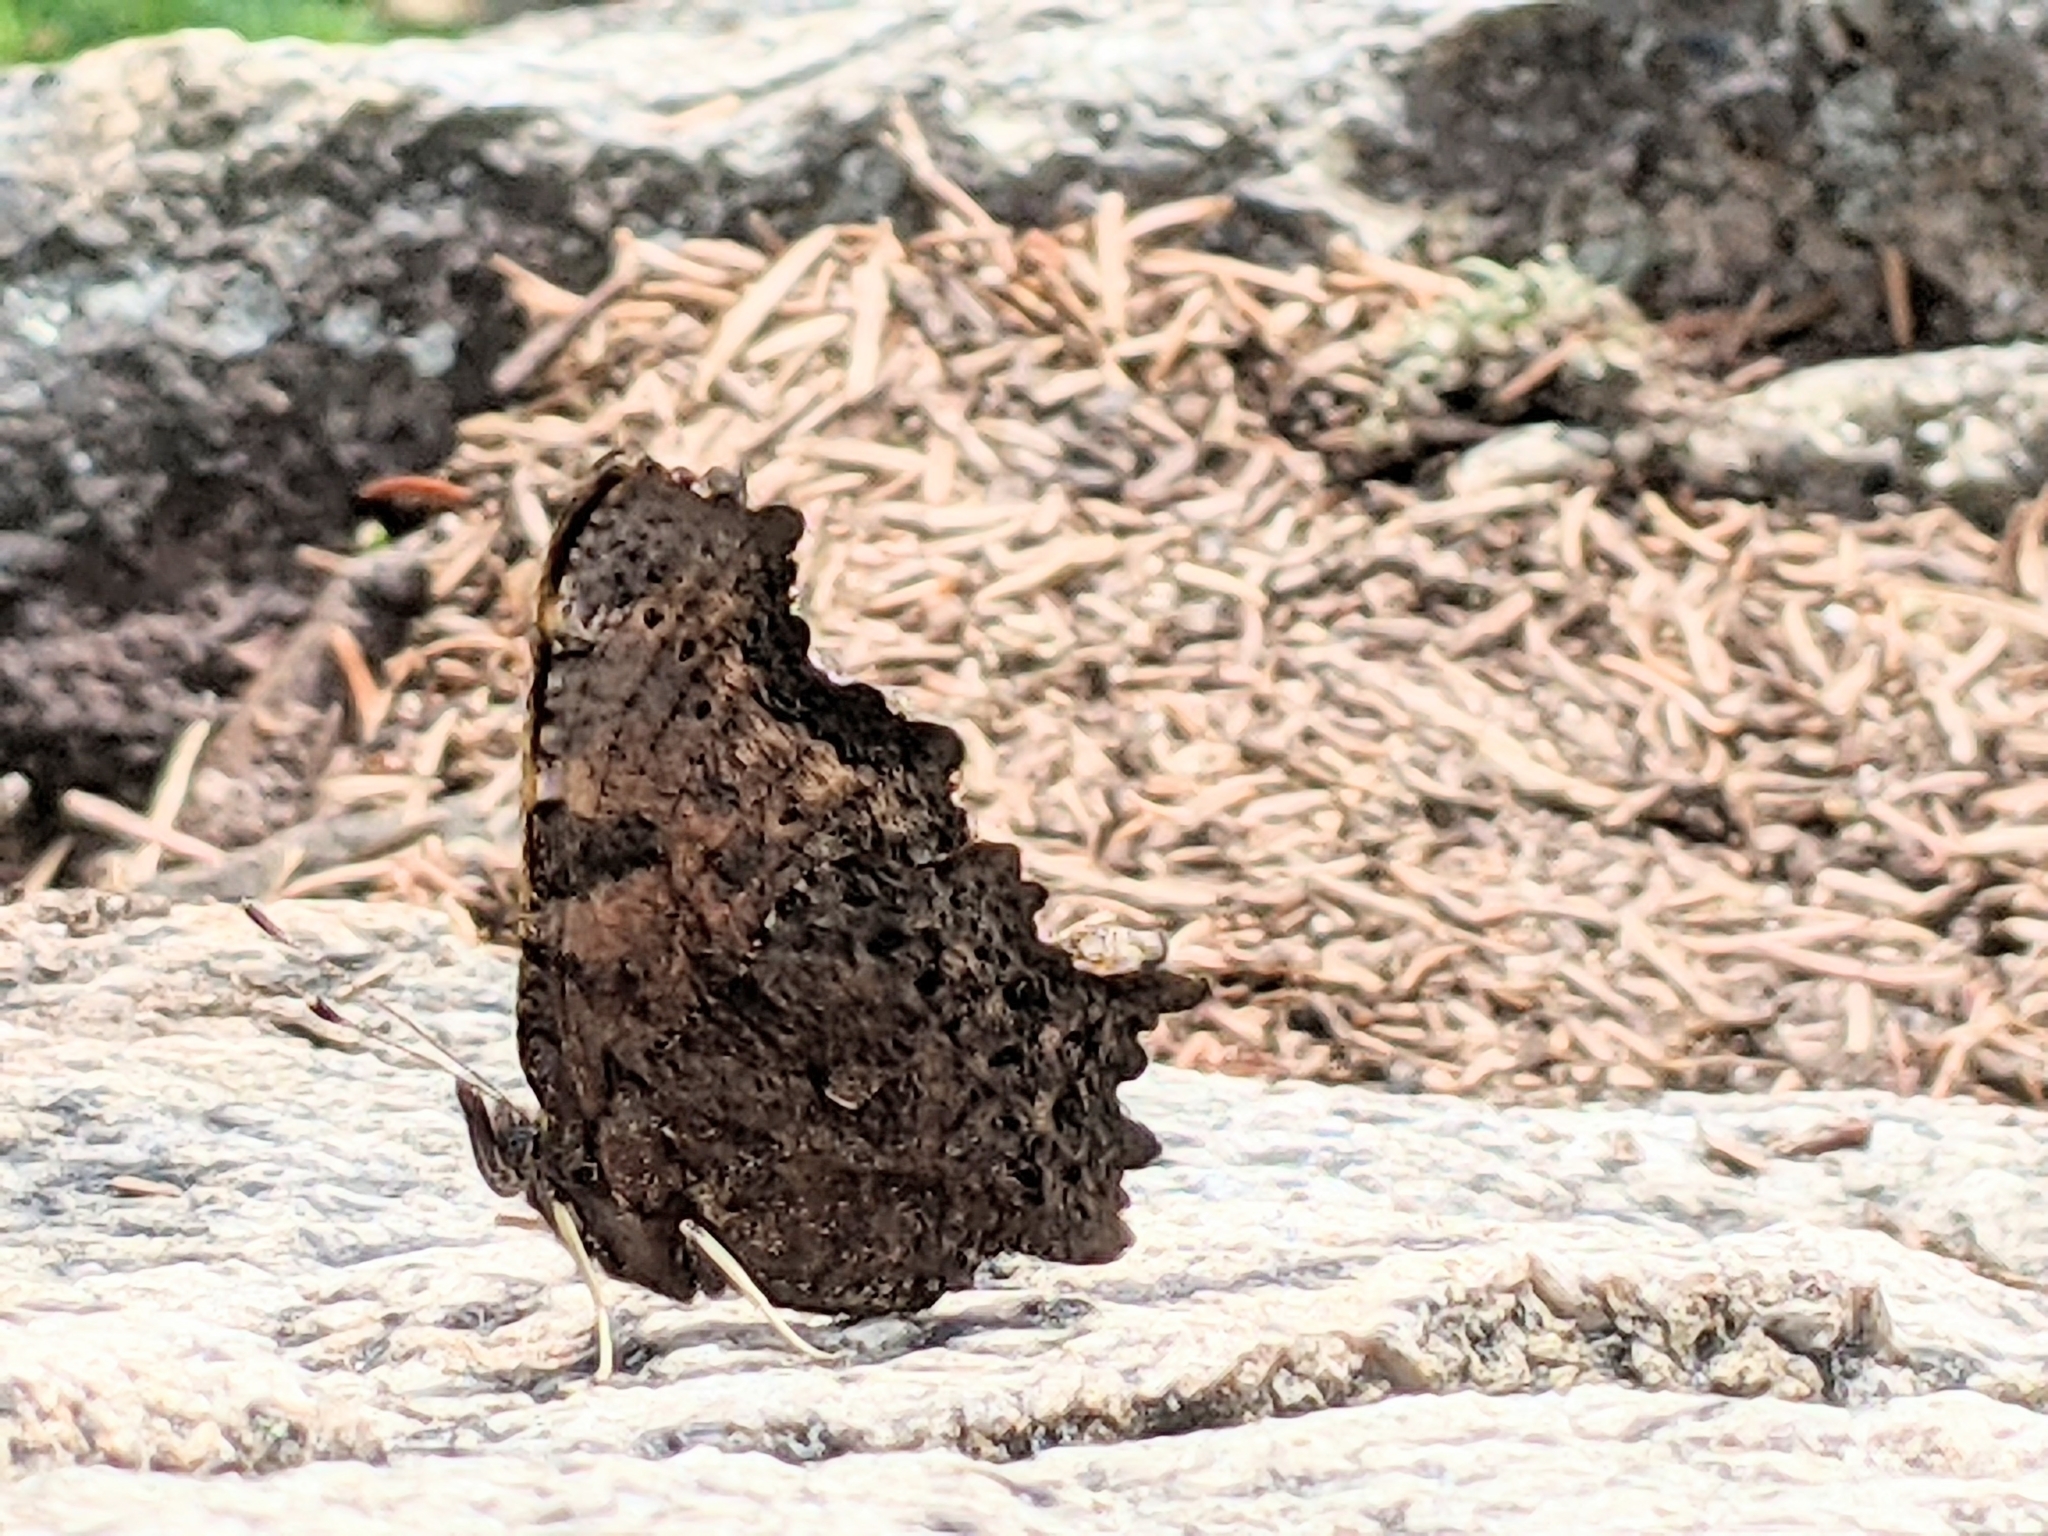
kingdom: Animalia
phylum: Arthropoda
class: Insecta
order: Lepidoptera
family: Nymphalidae
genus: Polygonia
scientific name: Polygonia faunus
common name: Green comma
